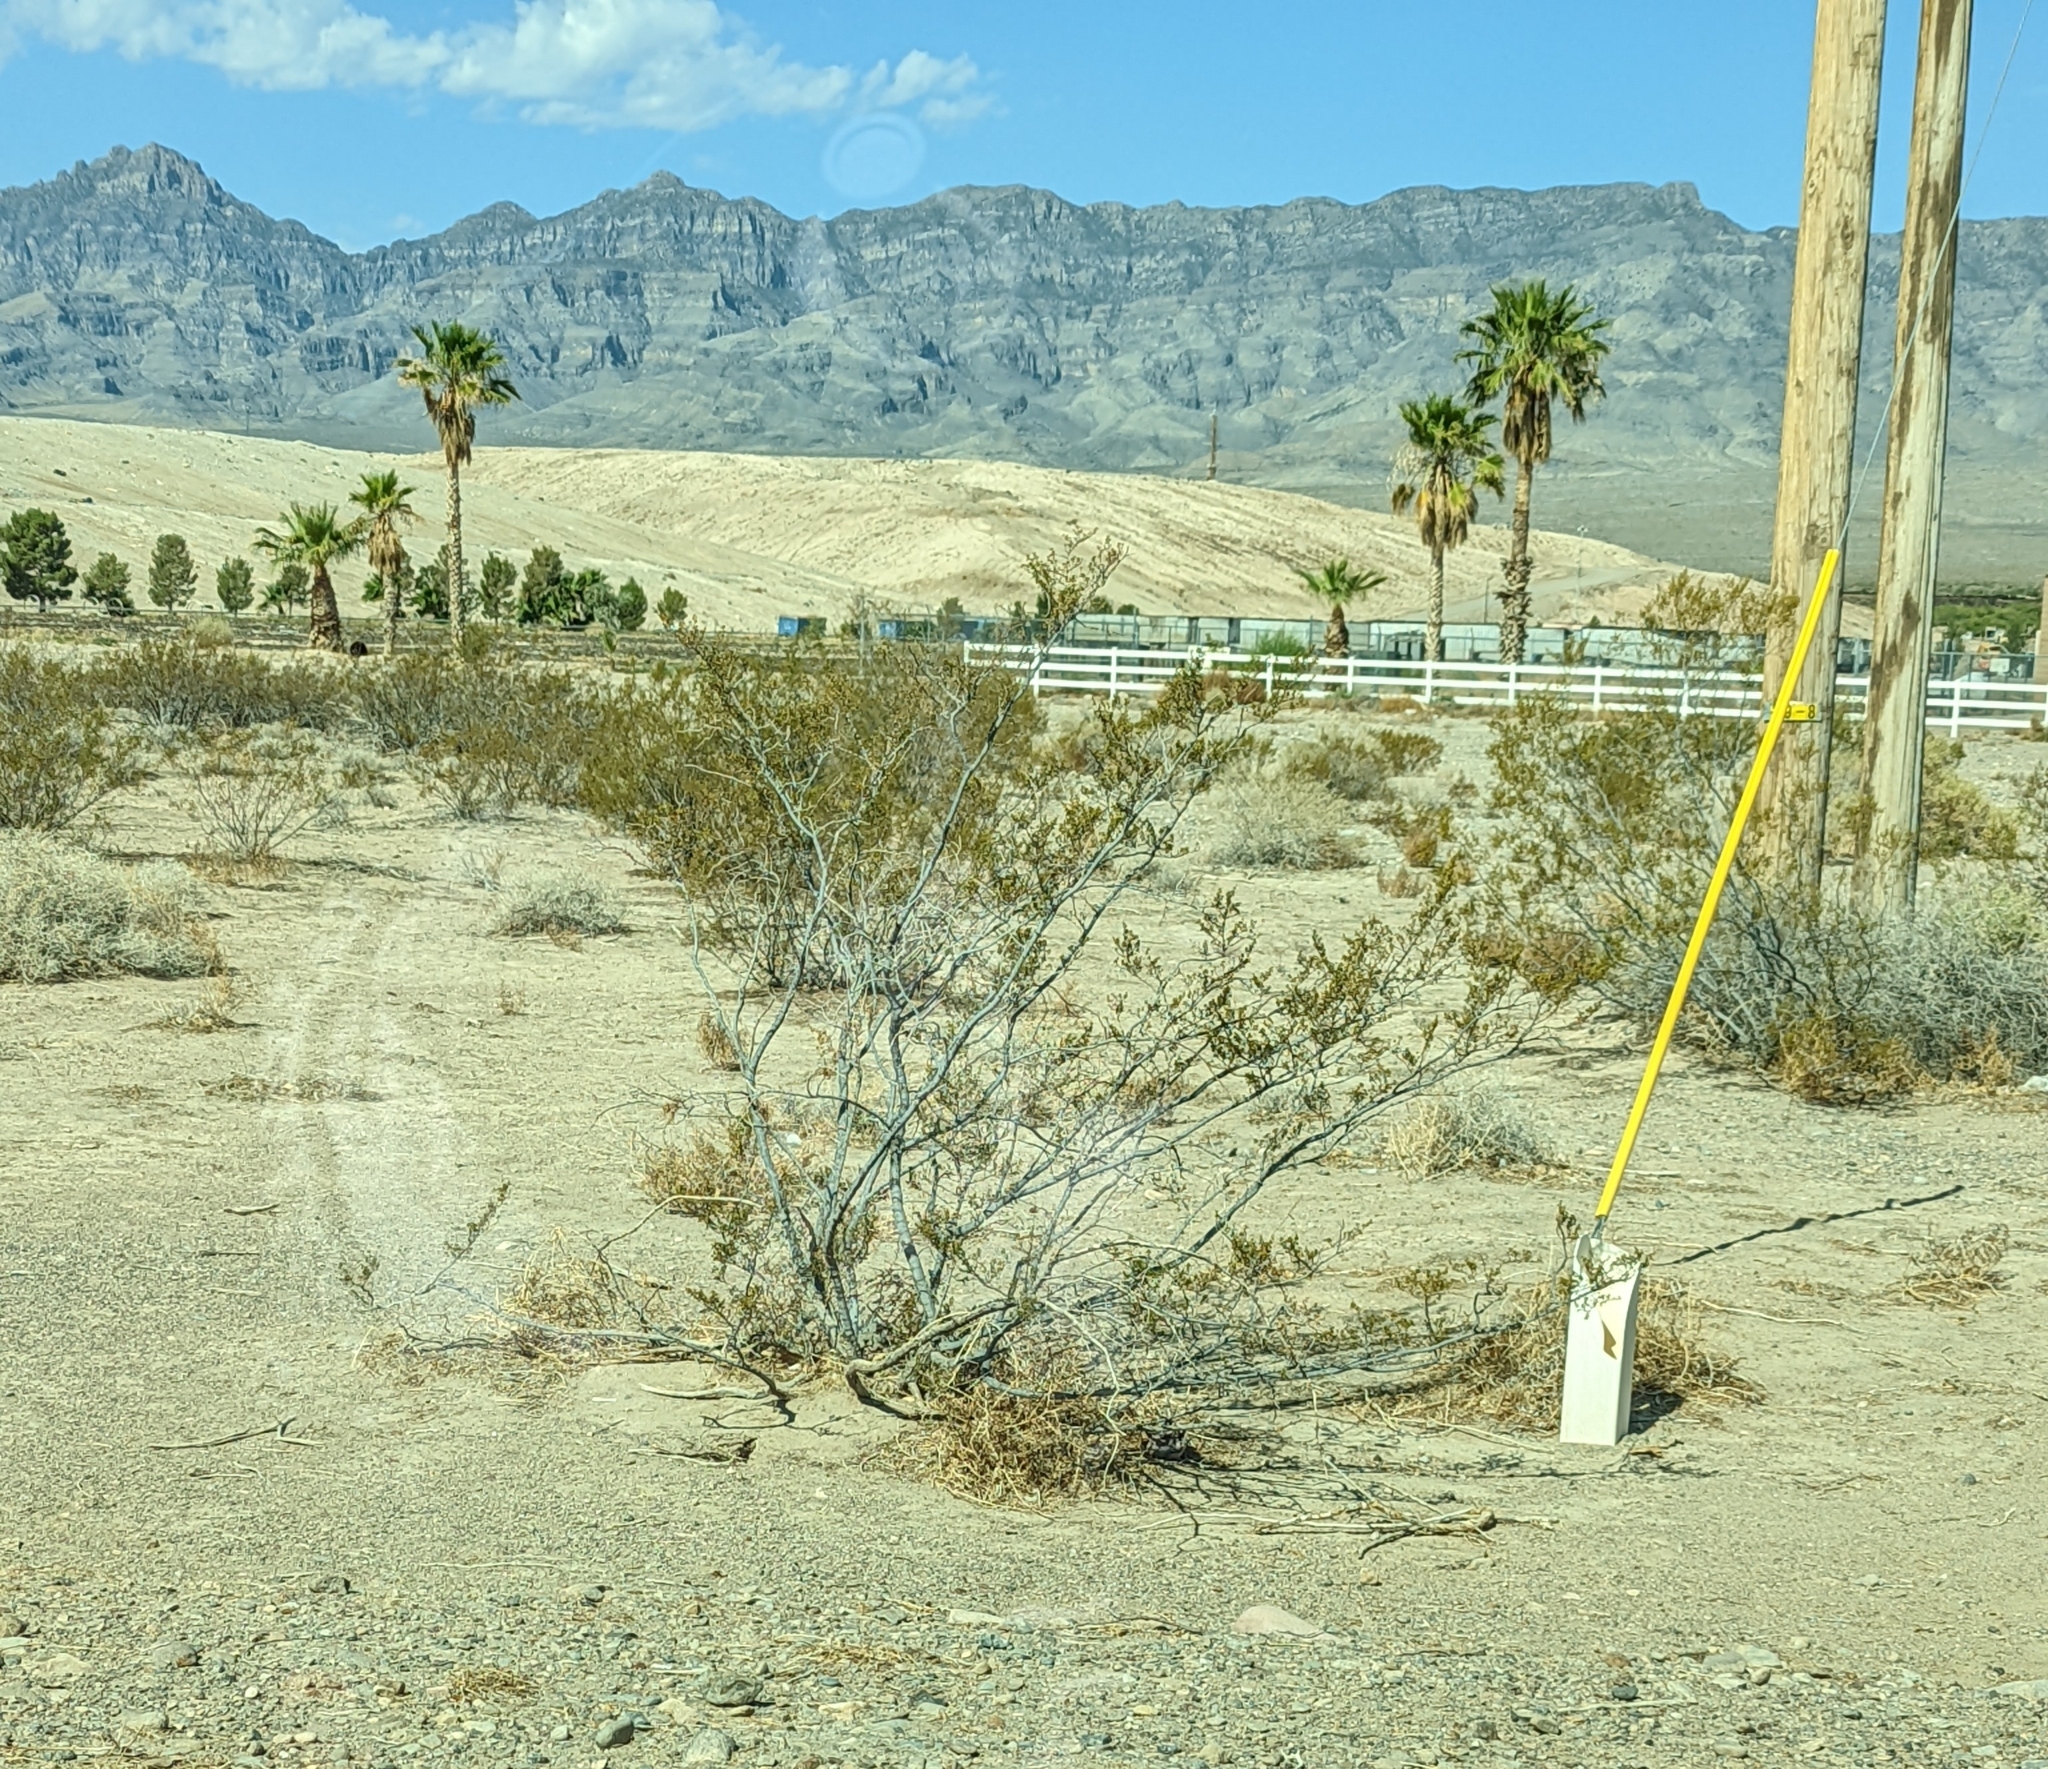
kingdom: Plantae
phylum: Tracheophyta
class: Magnoliopsida
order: Zygophyllales
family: Zygophyllaceae
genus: Larrea
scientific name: Larrea tridentata
